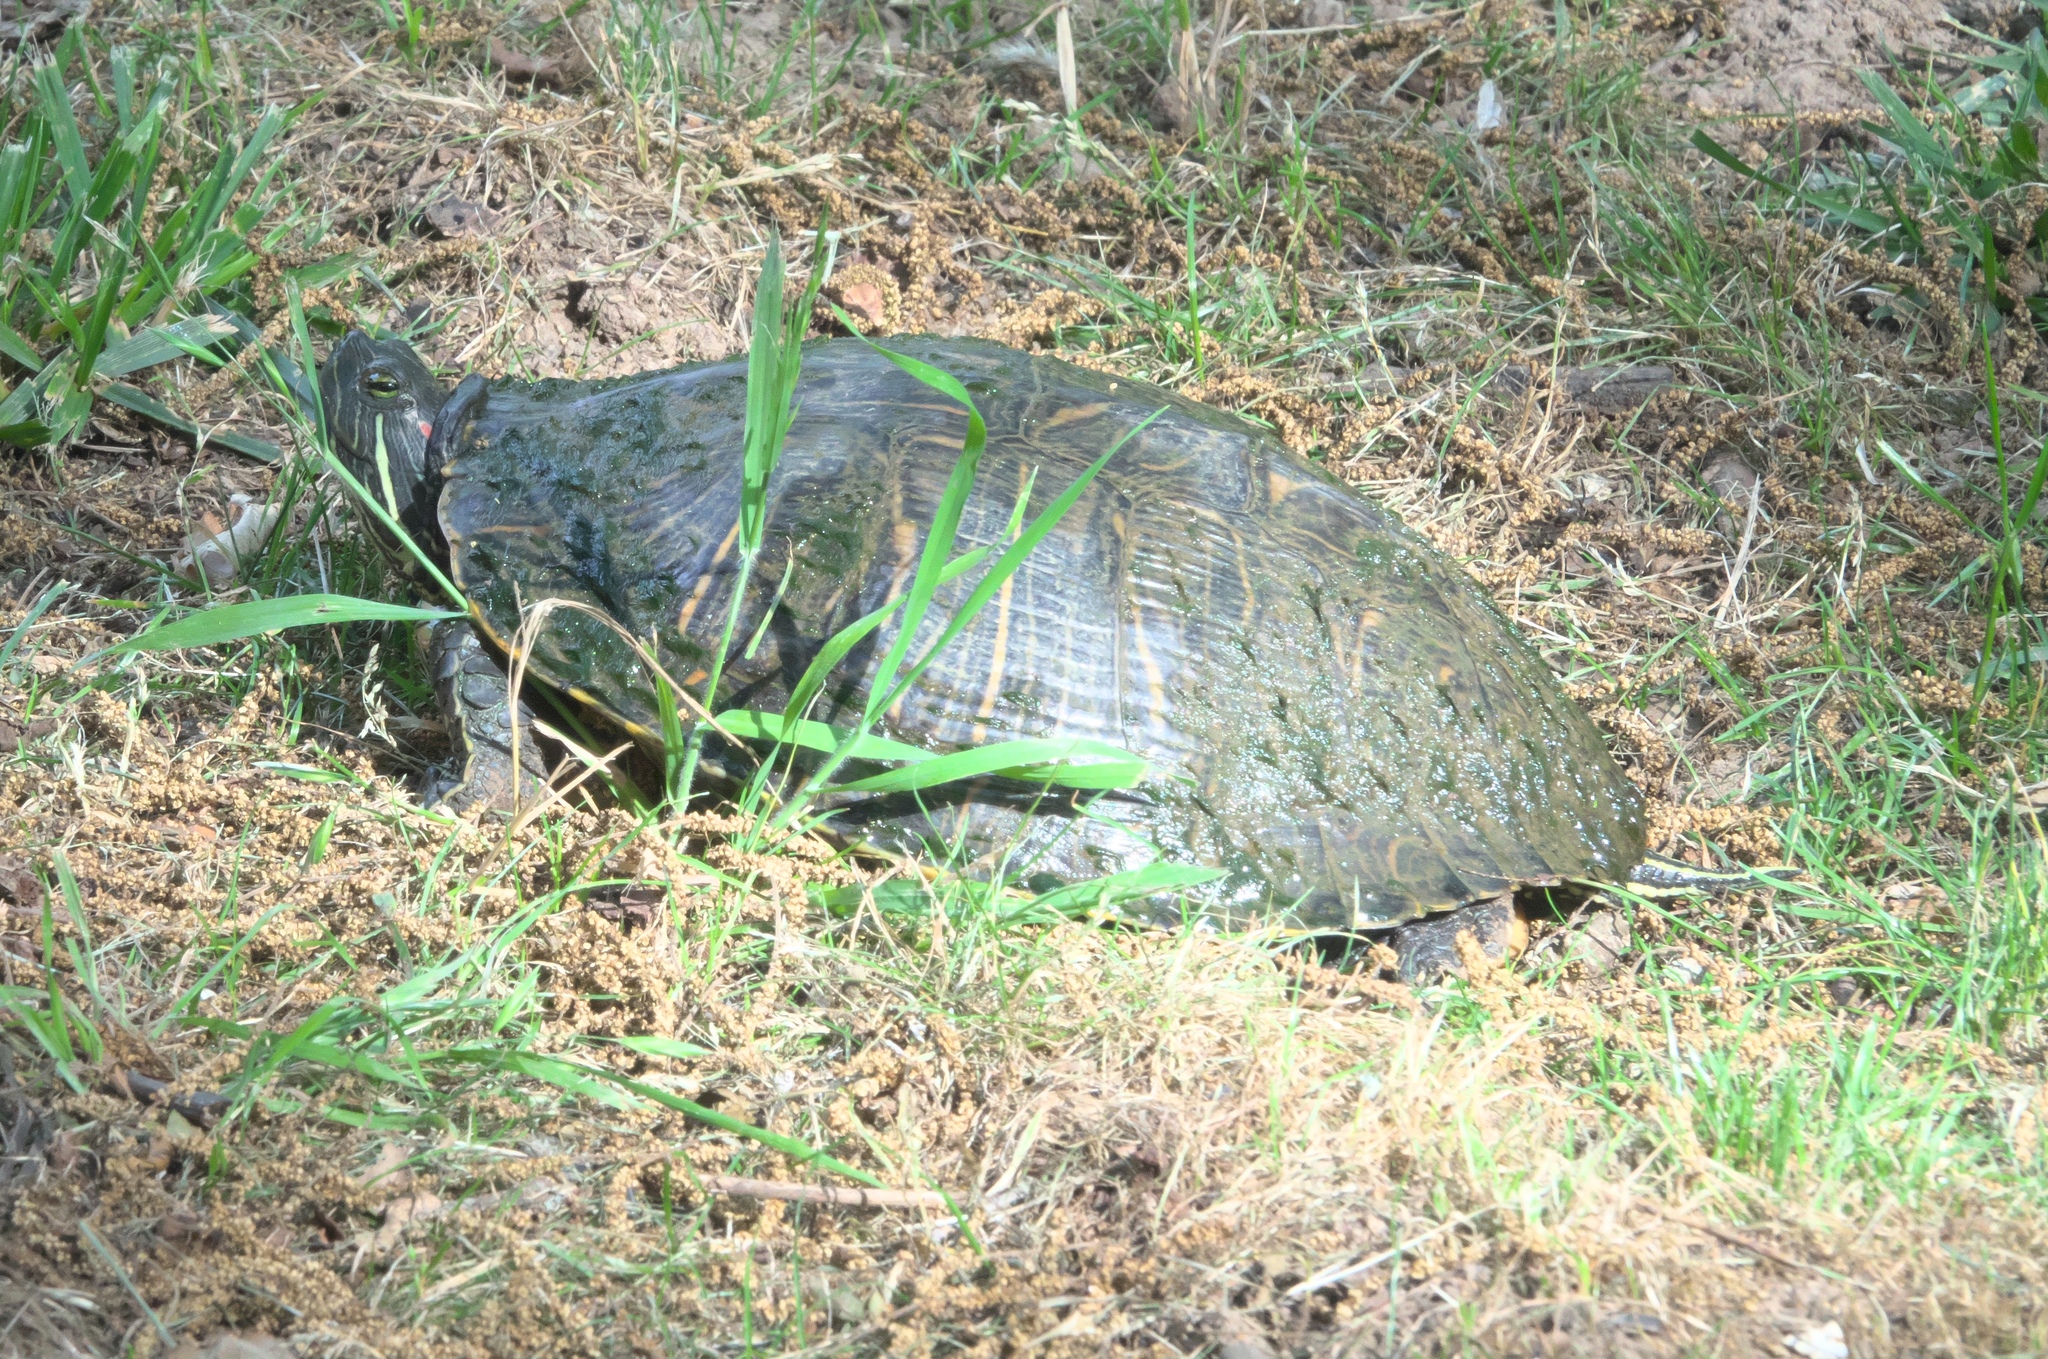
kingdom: Animalia
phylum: Chordata
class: Testudines
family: Emydidae
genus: Trachemys
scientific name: Trachemys scripta
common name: Slider
